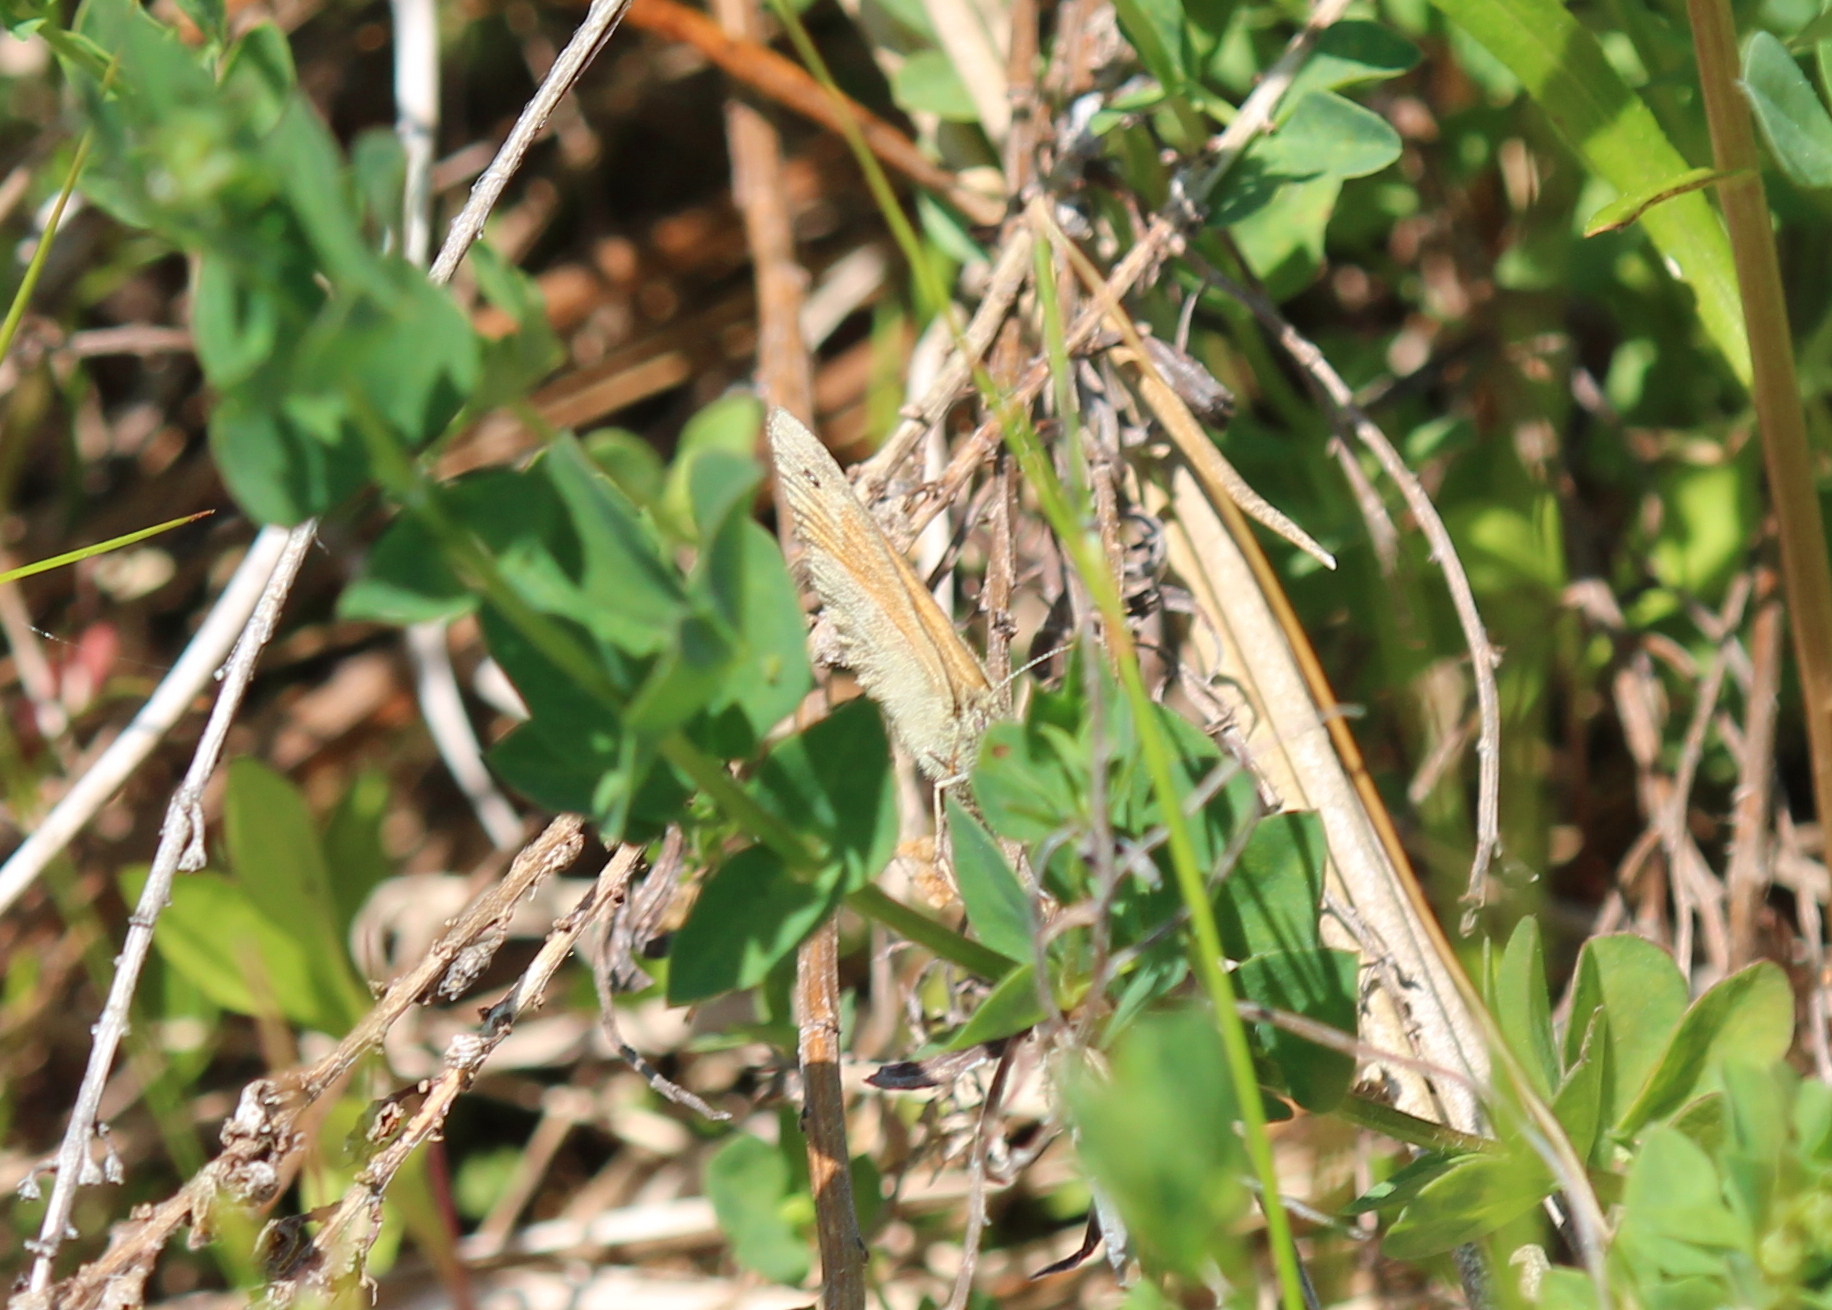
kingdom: Animalia
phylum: Arthropoda
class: Insecta
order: Lepidoptera
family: Nymphalidae
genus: Coenonympha
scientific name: Coenonympha california
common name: Common ringlet
